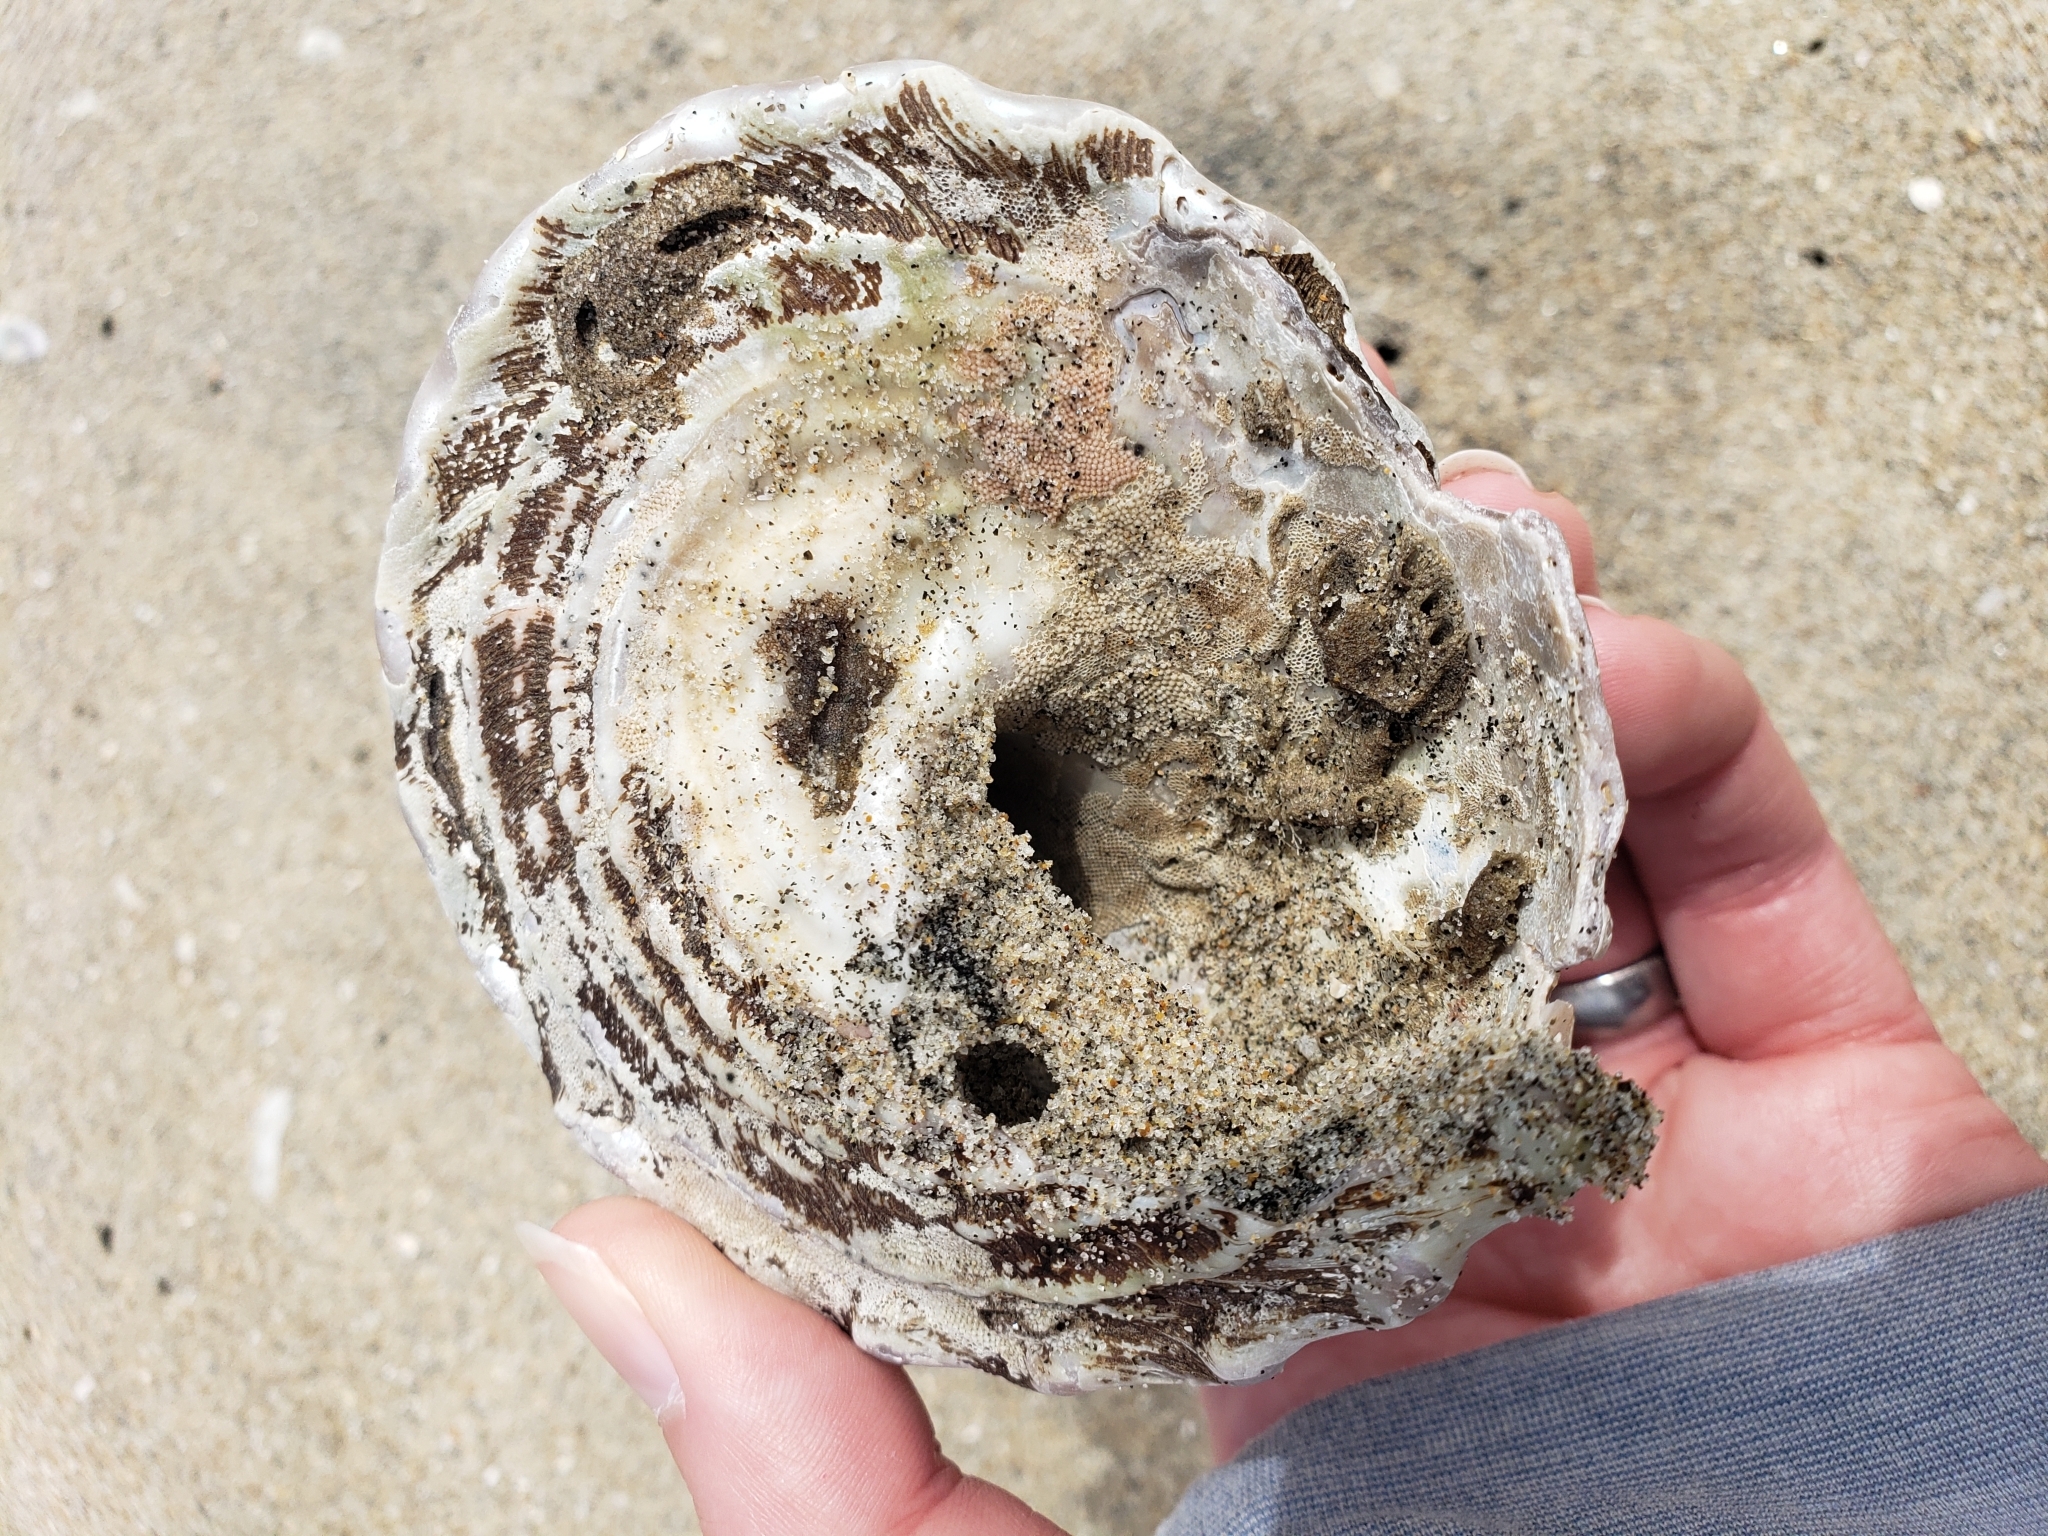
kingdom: Animalia
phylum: Mollusca
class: Gastropoda
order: Trochida
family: Turbinidae
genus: Megastraea
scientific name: Megastraea undosa
